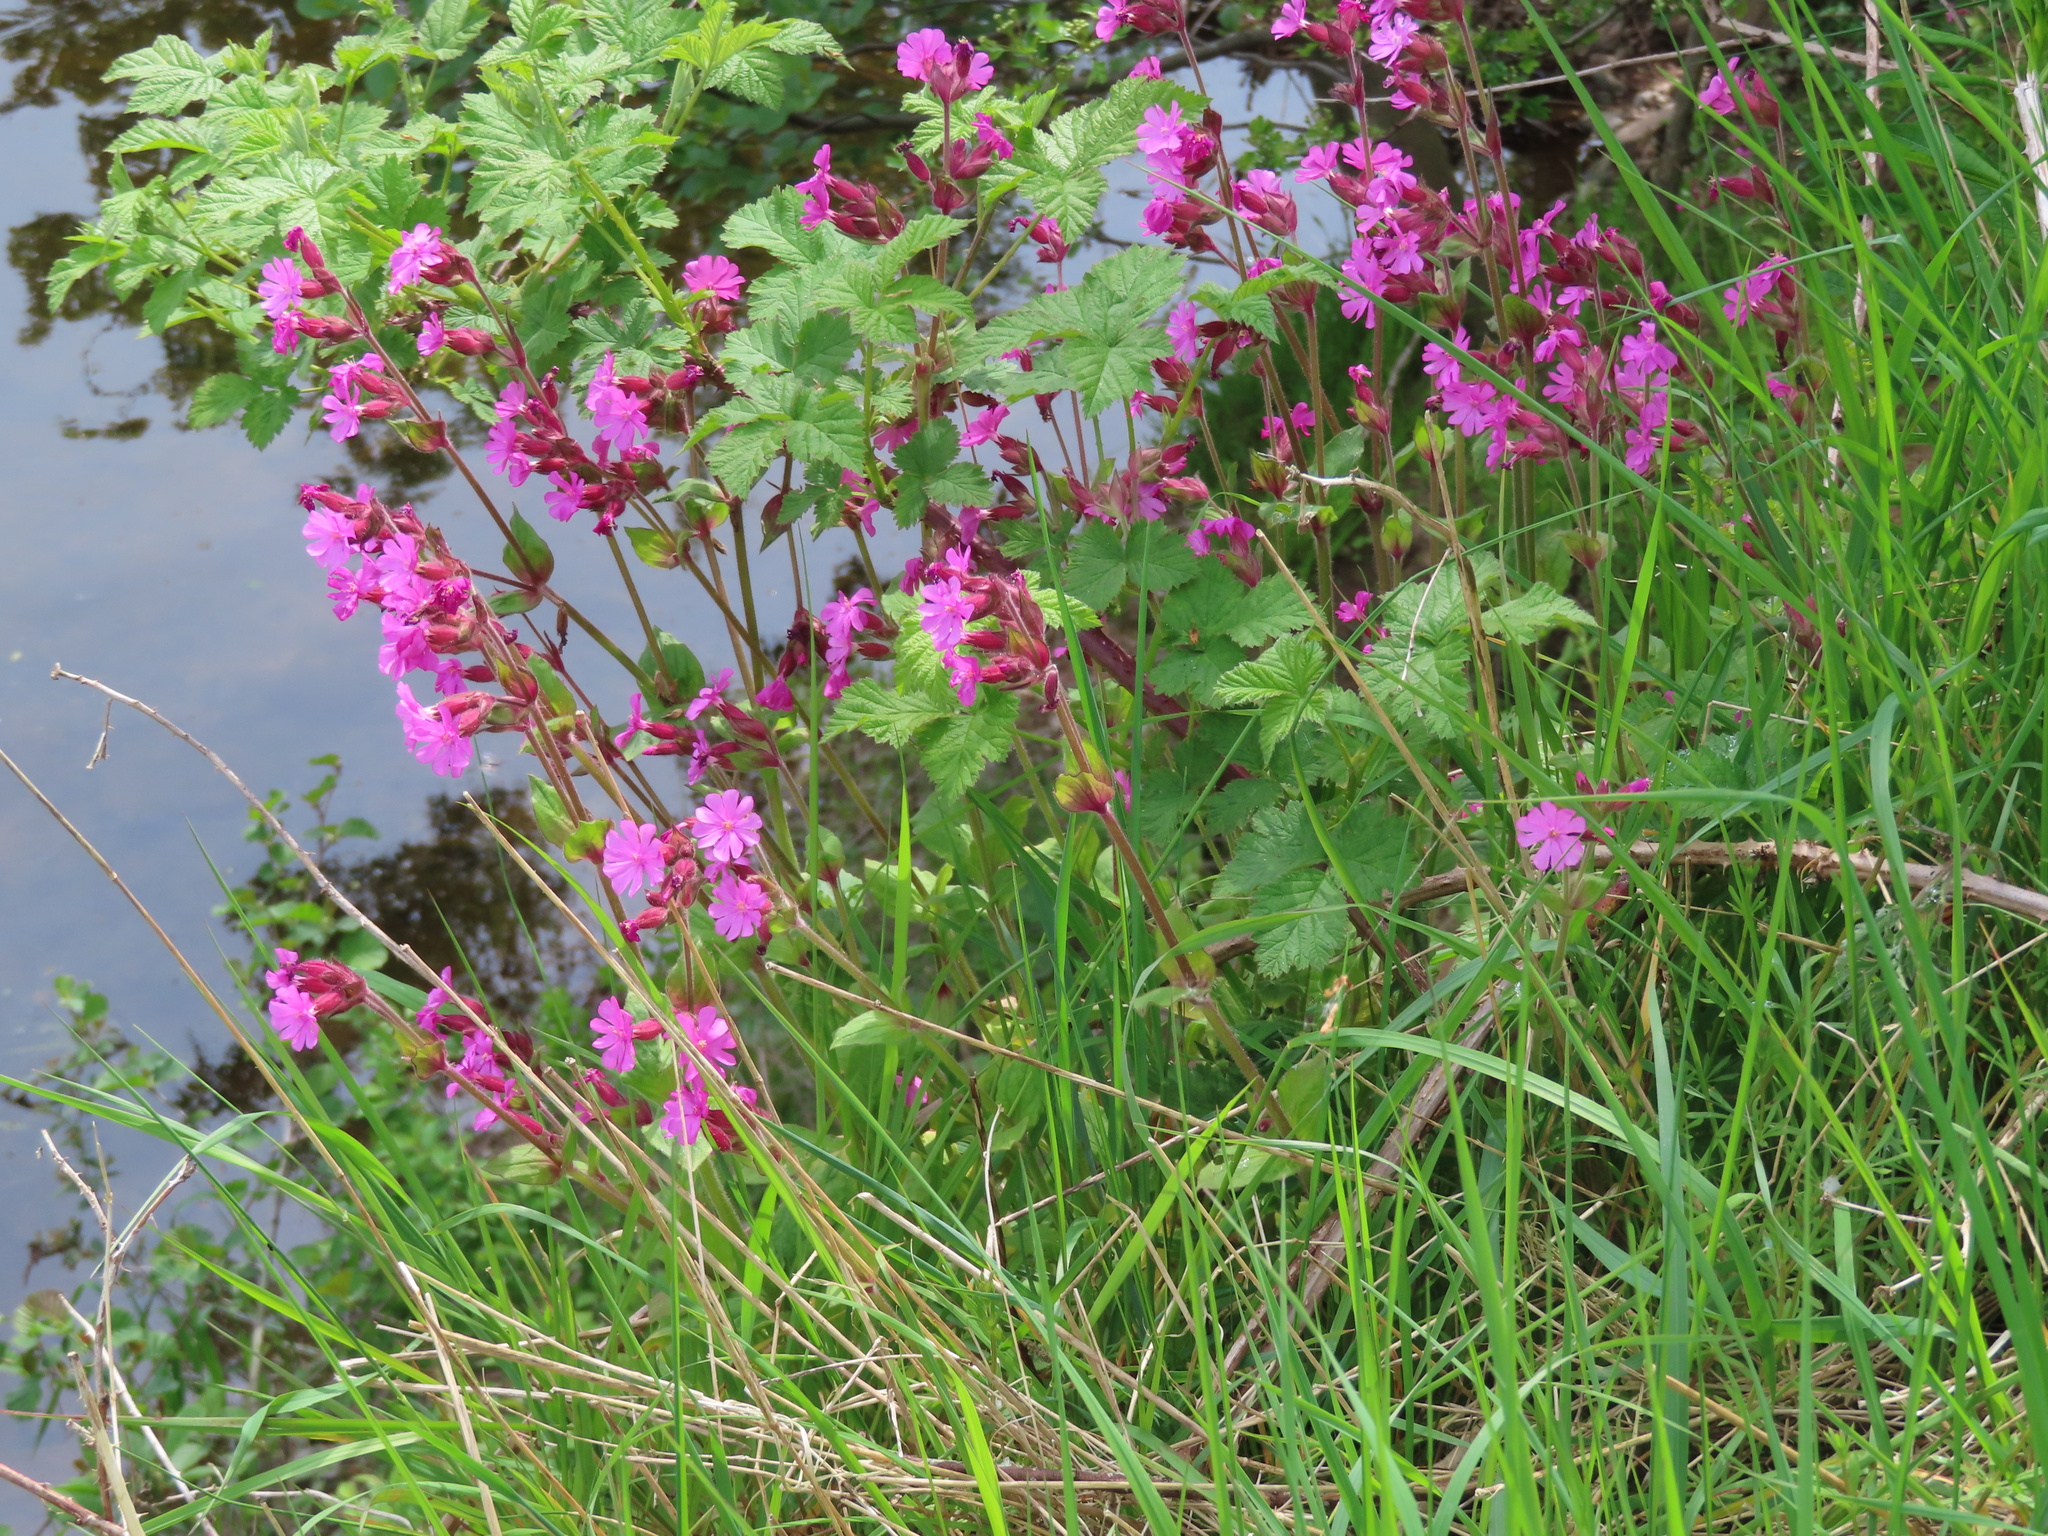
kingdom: Plantae
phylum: Tracheophyta
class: Magnoliopsida
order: Caryophyllales
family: Caryophyllaceae
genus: Silene
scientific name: Silene dioica
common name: Red campion
